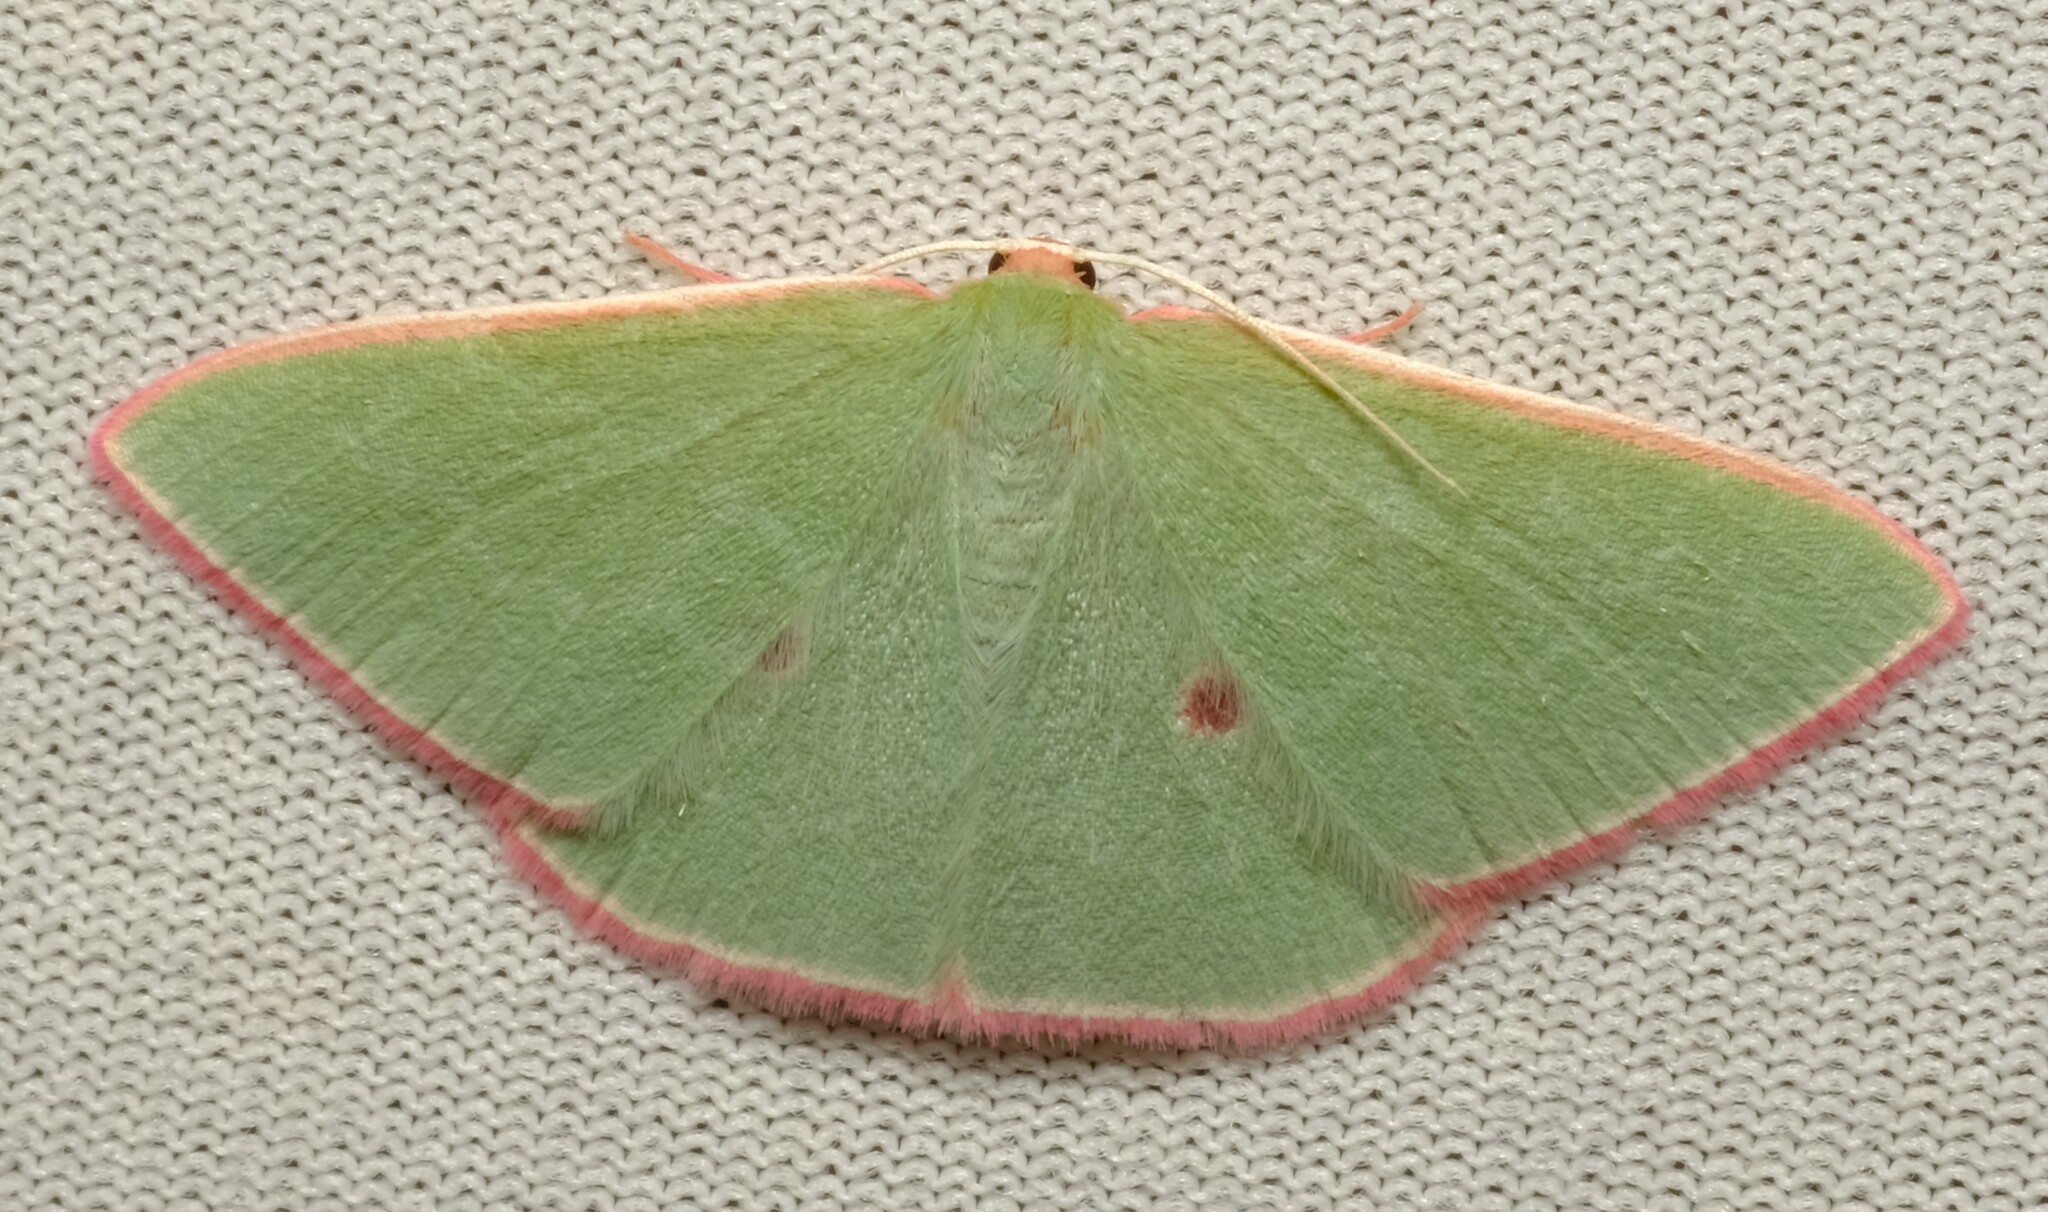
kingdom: Animalia
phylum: Arthropoda
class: Insecta
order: Lepidoptera
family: Geometridae
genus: Chlorocoma
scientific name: Chlorocoma cadmaria
